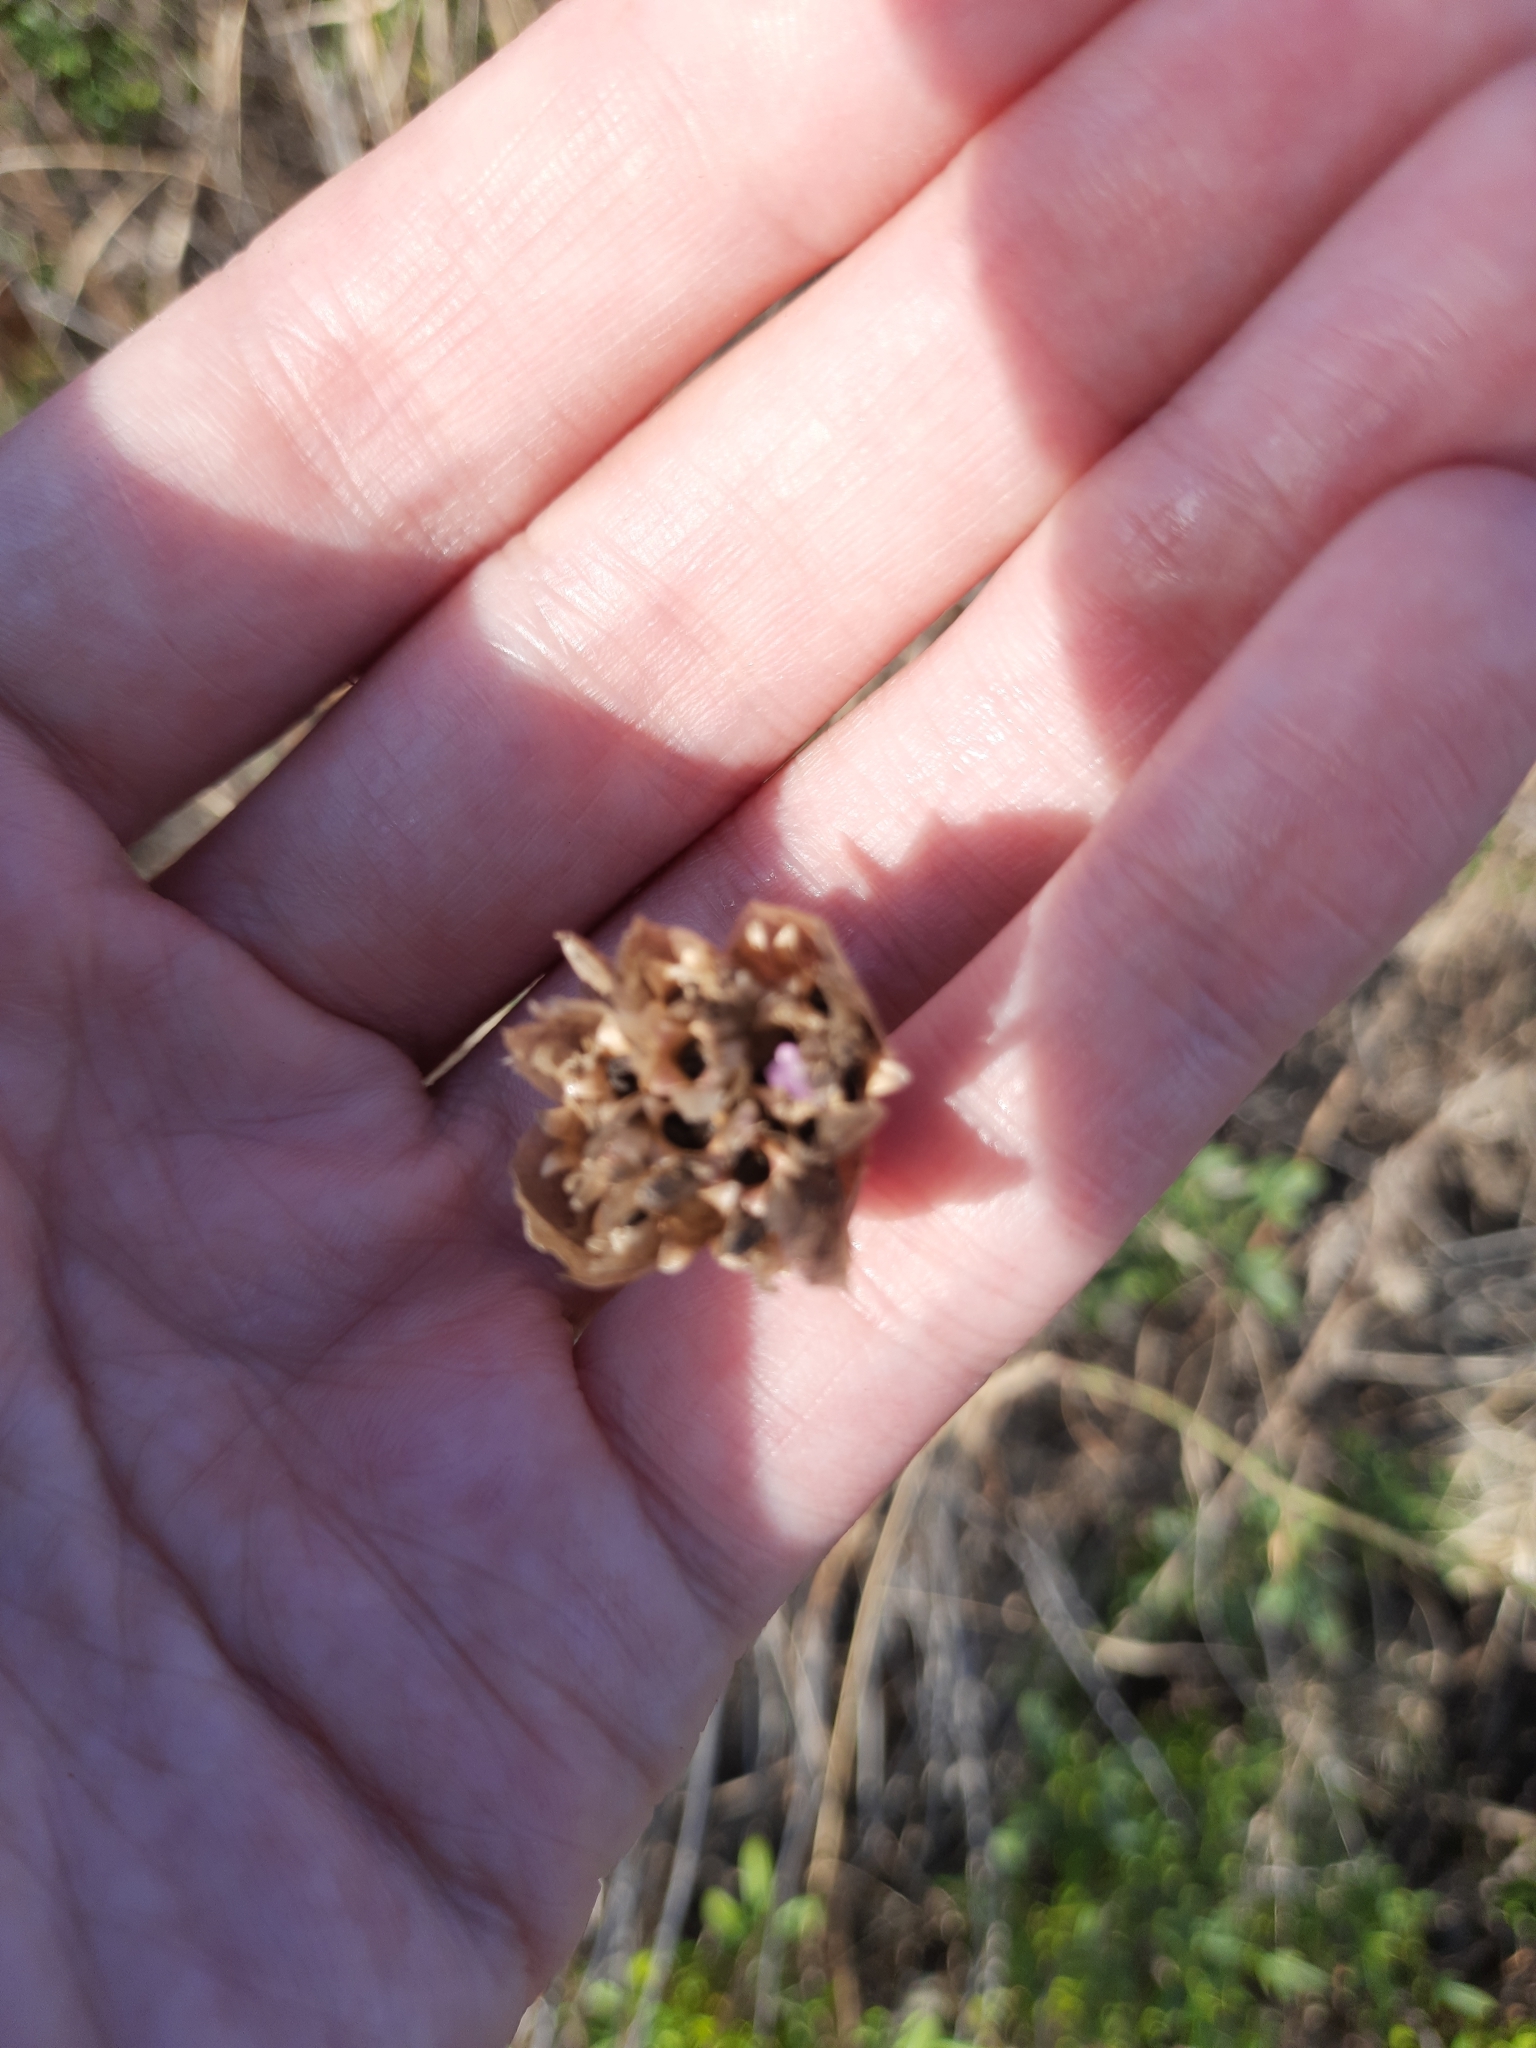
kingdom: Plantae
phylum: Tracheophyta
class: Magnoliopsida
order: Caryophyllales
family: Caryophyllaceae
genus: Petrorhagia
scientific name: Petrorhagia prolifera
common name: Proliferous pink
